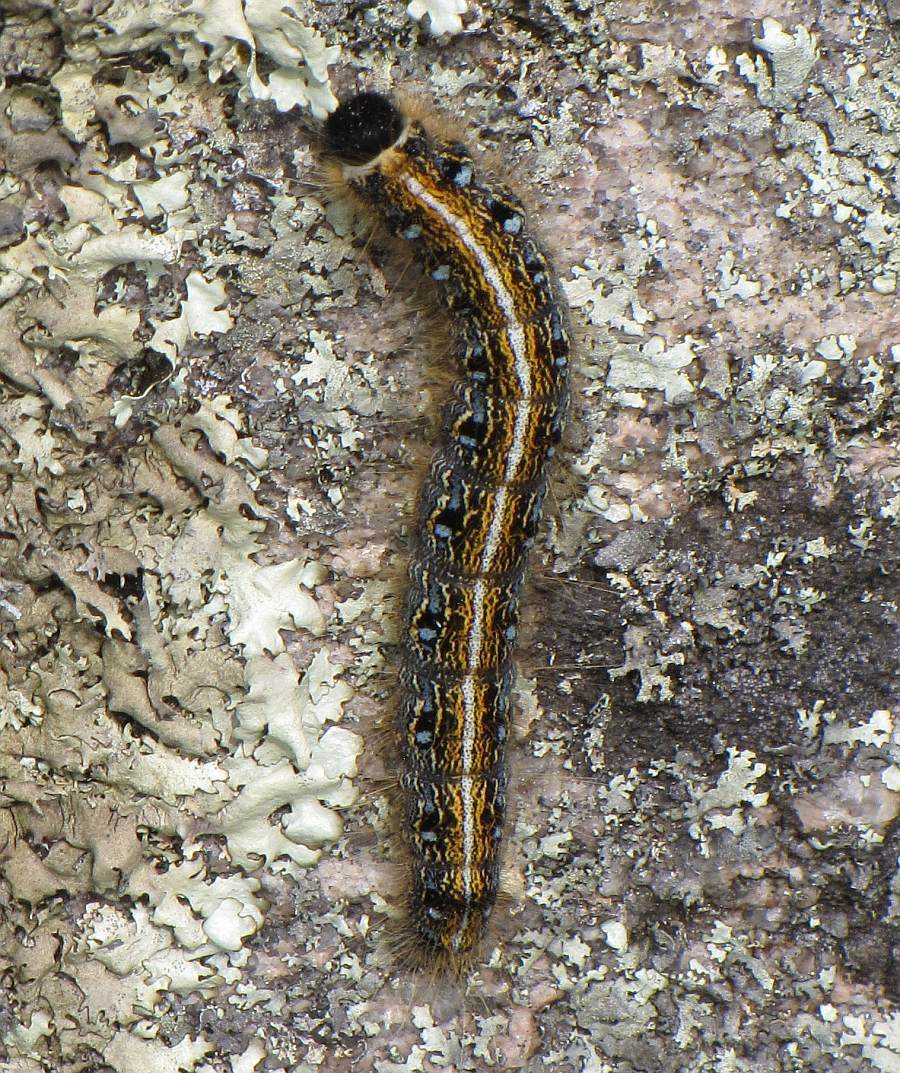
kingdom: Animalia
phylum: Arthropoda
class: Insecta
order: Lepidoptera
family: Lasiocampidae
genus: Malacosoma
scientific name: Malacosoma americana
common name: Eastern tent caterpillar moth
